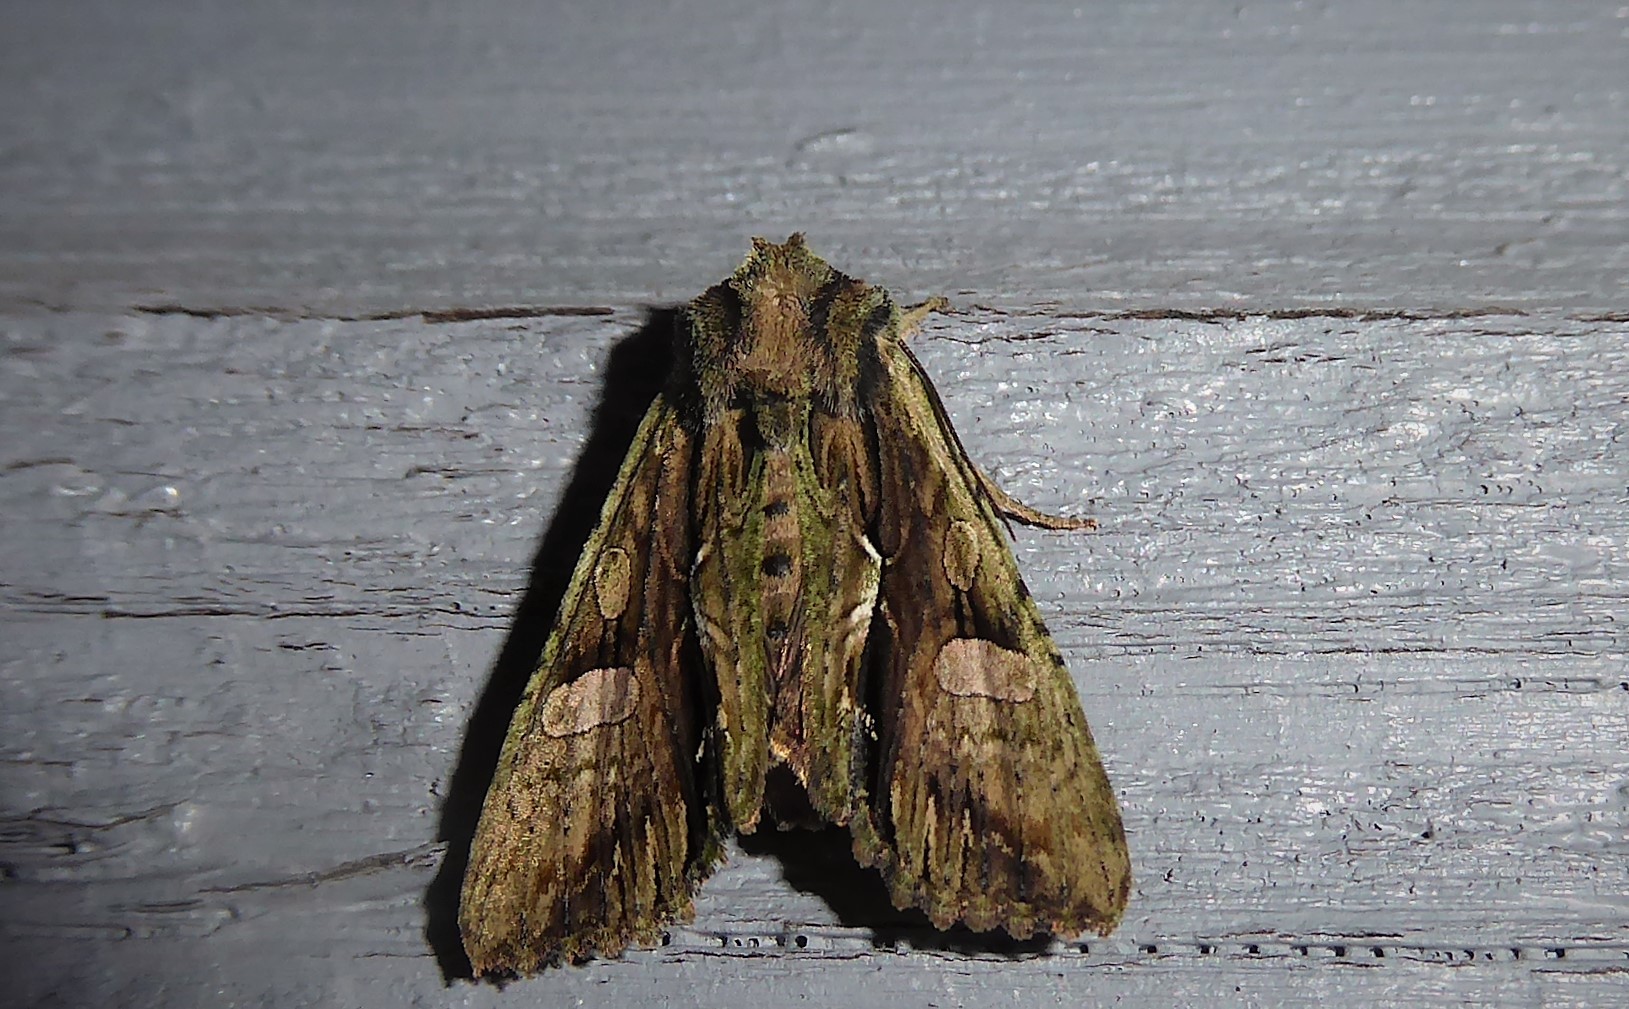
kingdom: Animalia
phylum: Arthropoda
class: Insecta
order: Lepidoptera
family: Noctuidae
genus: Meterana
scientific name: Meterana decorata
